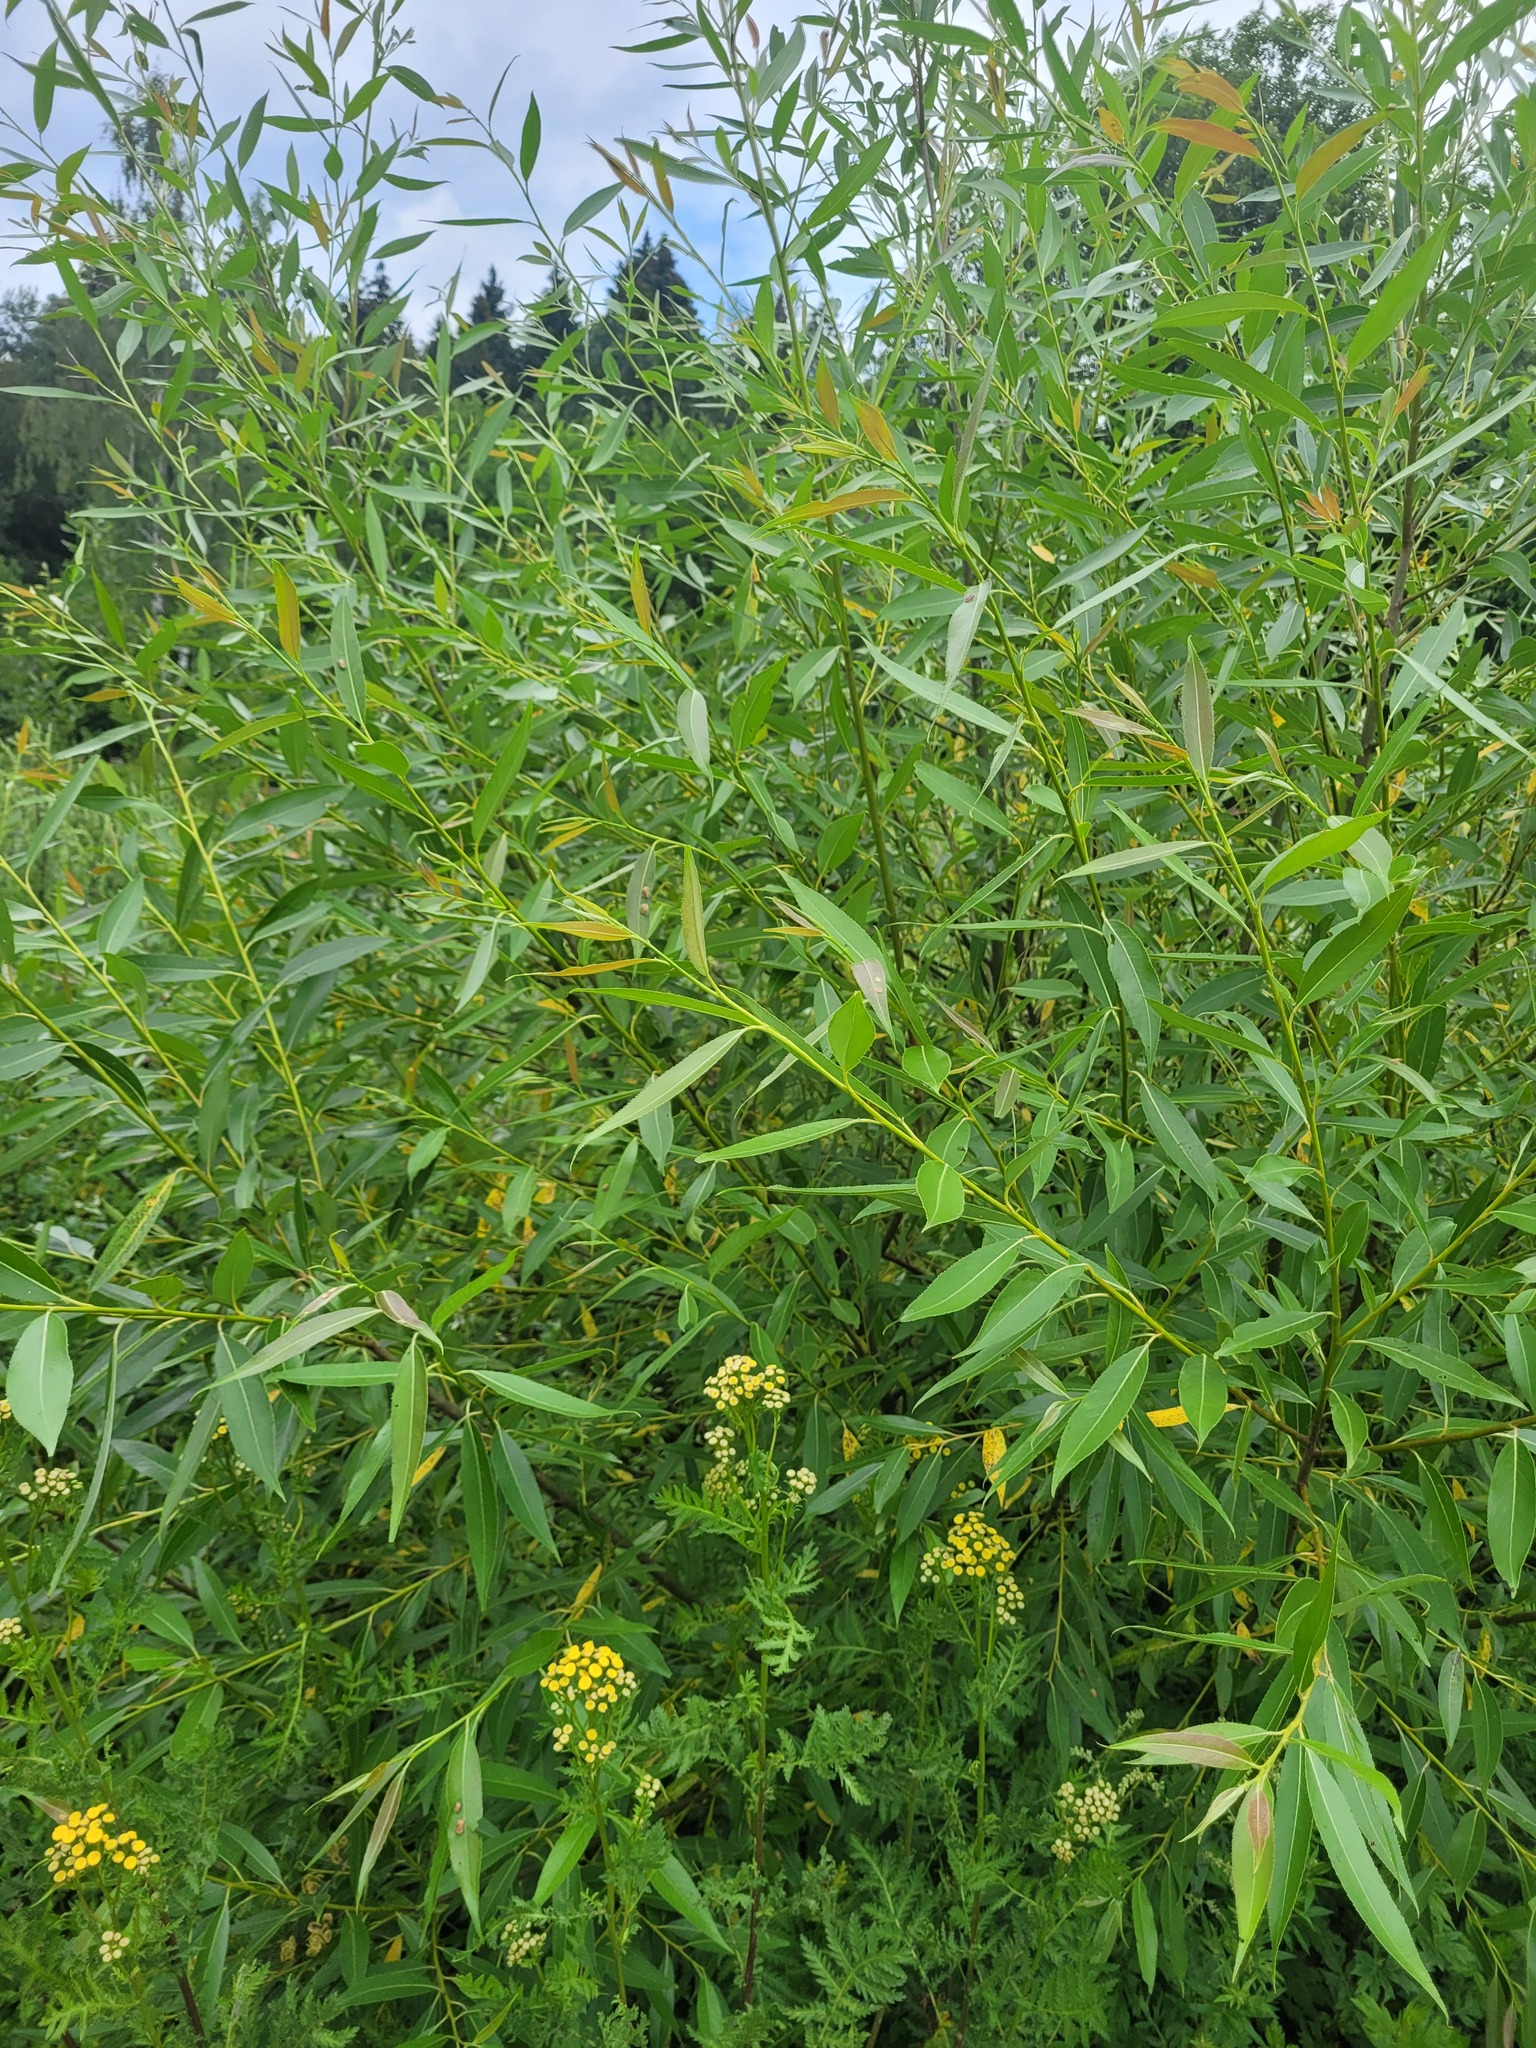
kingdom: Plantae
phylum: Tracheophyta
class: Magnoliopsida
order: Malpighiales
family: Salicaceae
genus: Salix
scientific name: Salix fragilis
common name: Crack willow
